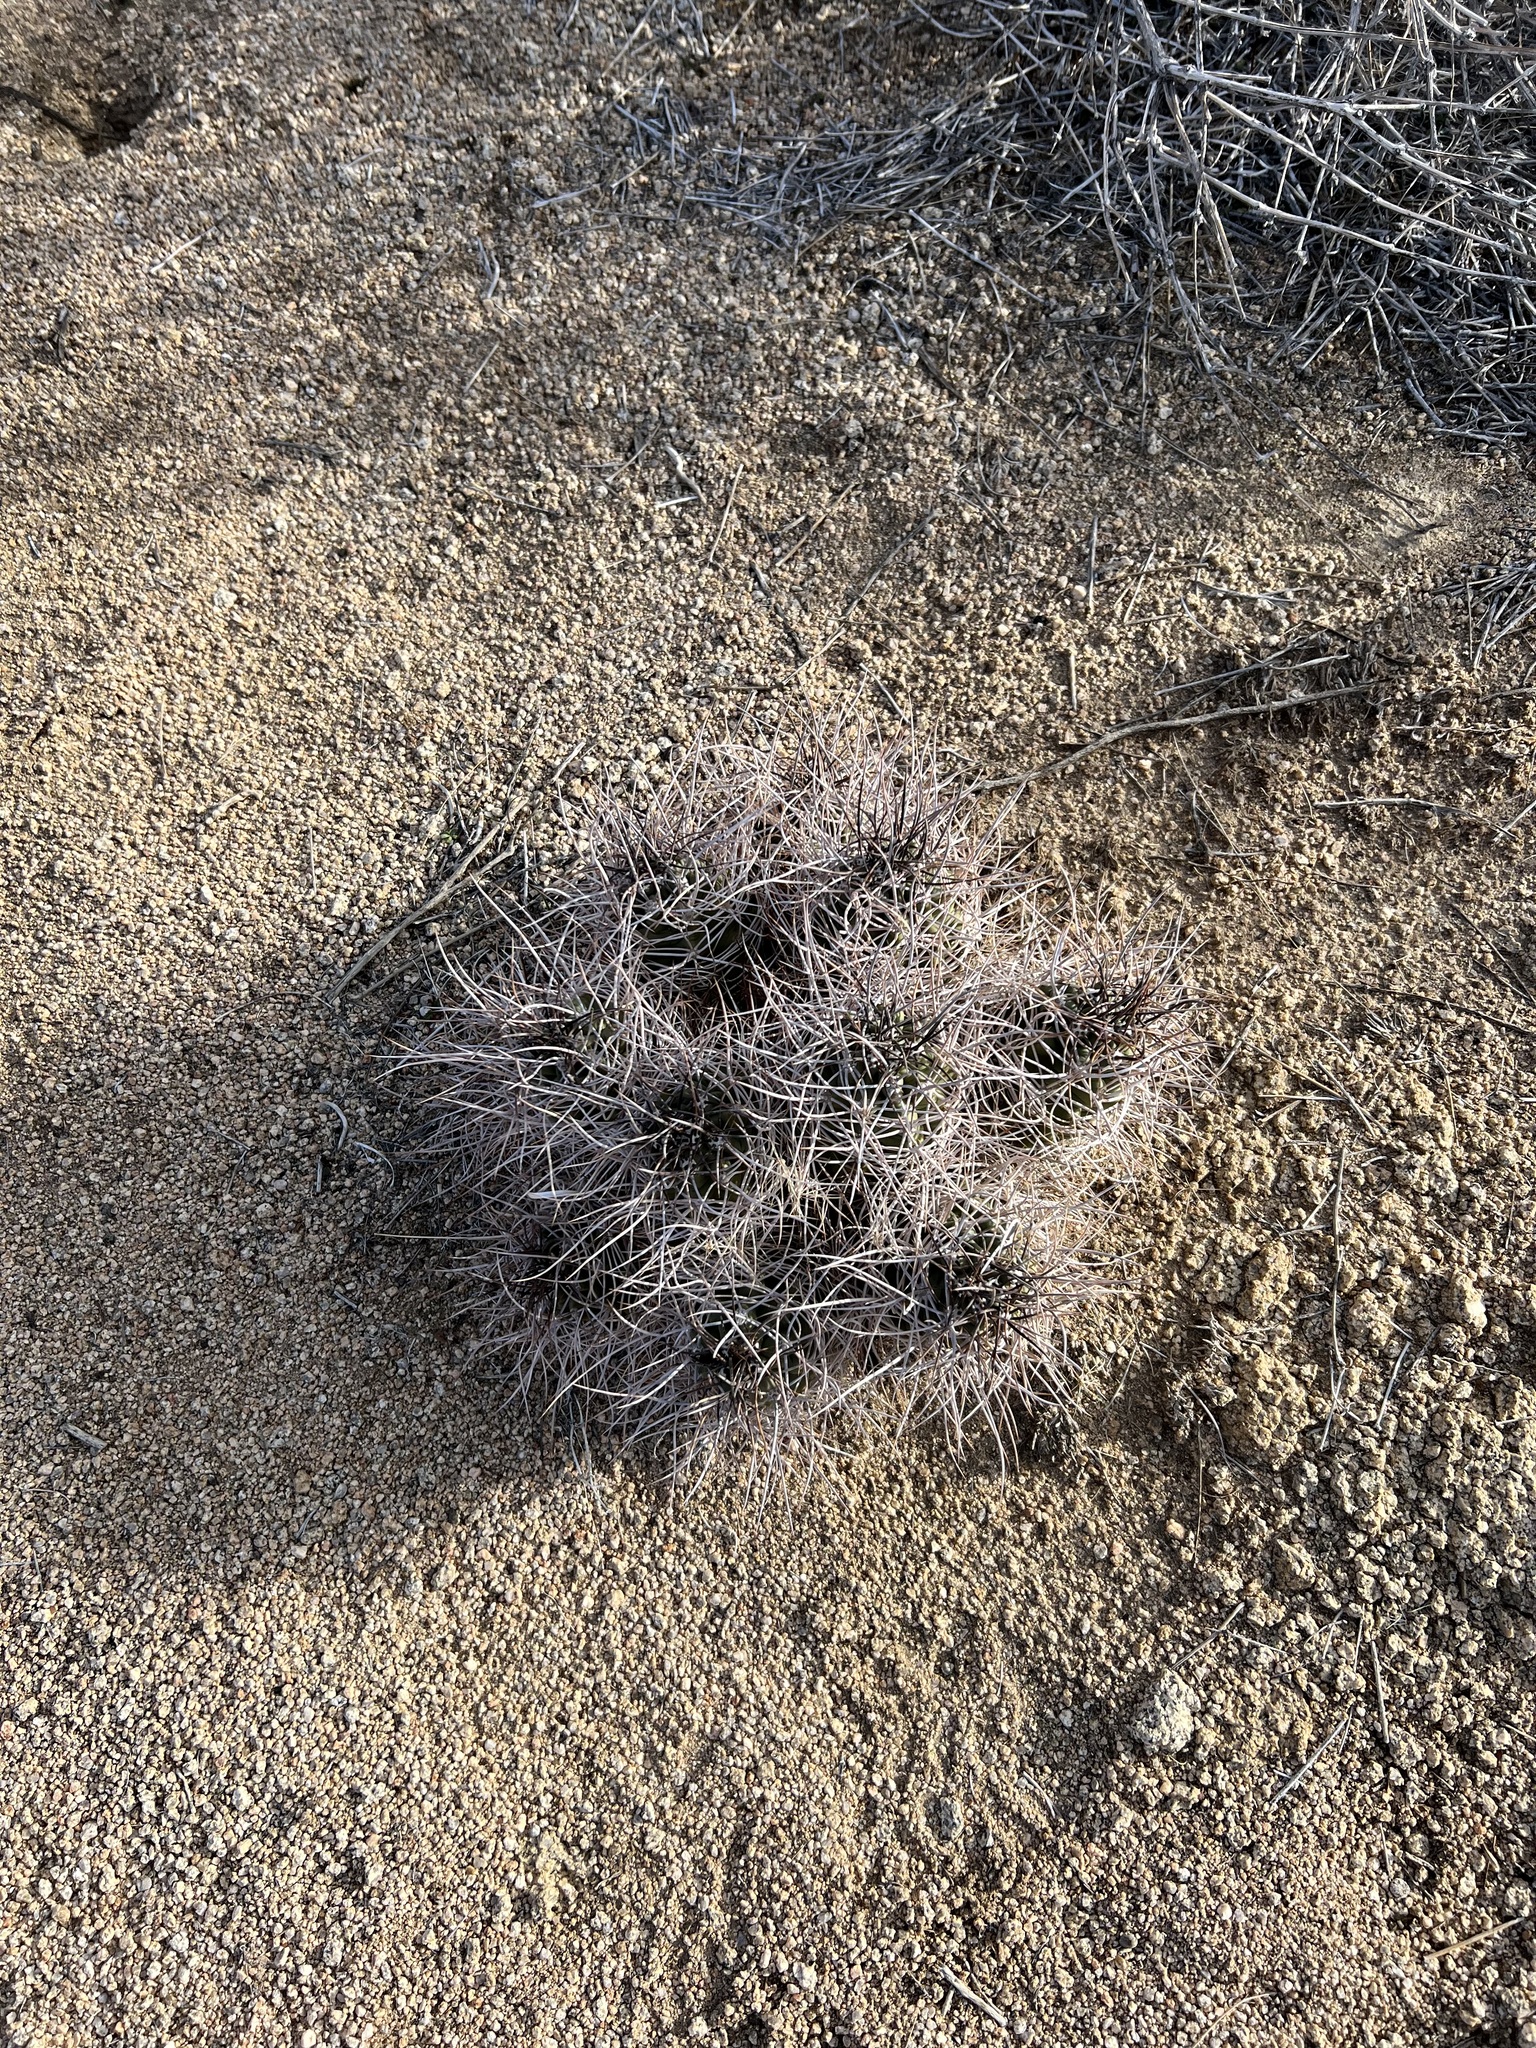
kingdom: Plantae
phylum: Tracheophyta
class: Magnoliopsida
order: Caryophyllales
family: Cactaceae
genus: Echinocereus
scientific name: Echinocereus triglochidiatus
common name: Claretcup hedgehog
